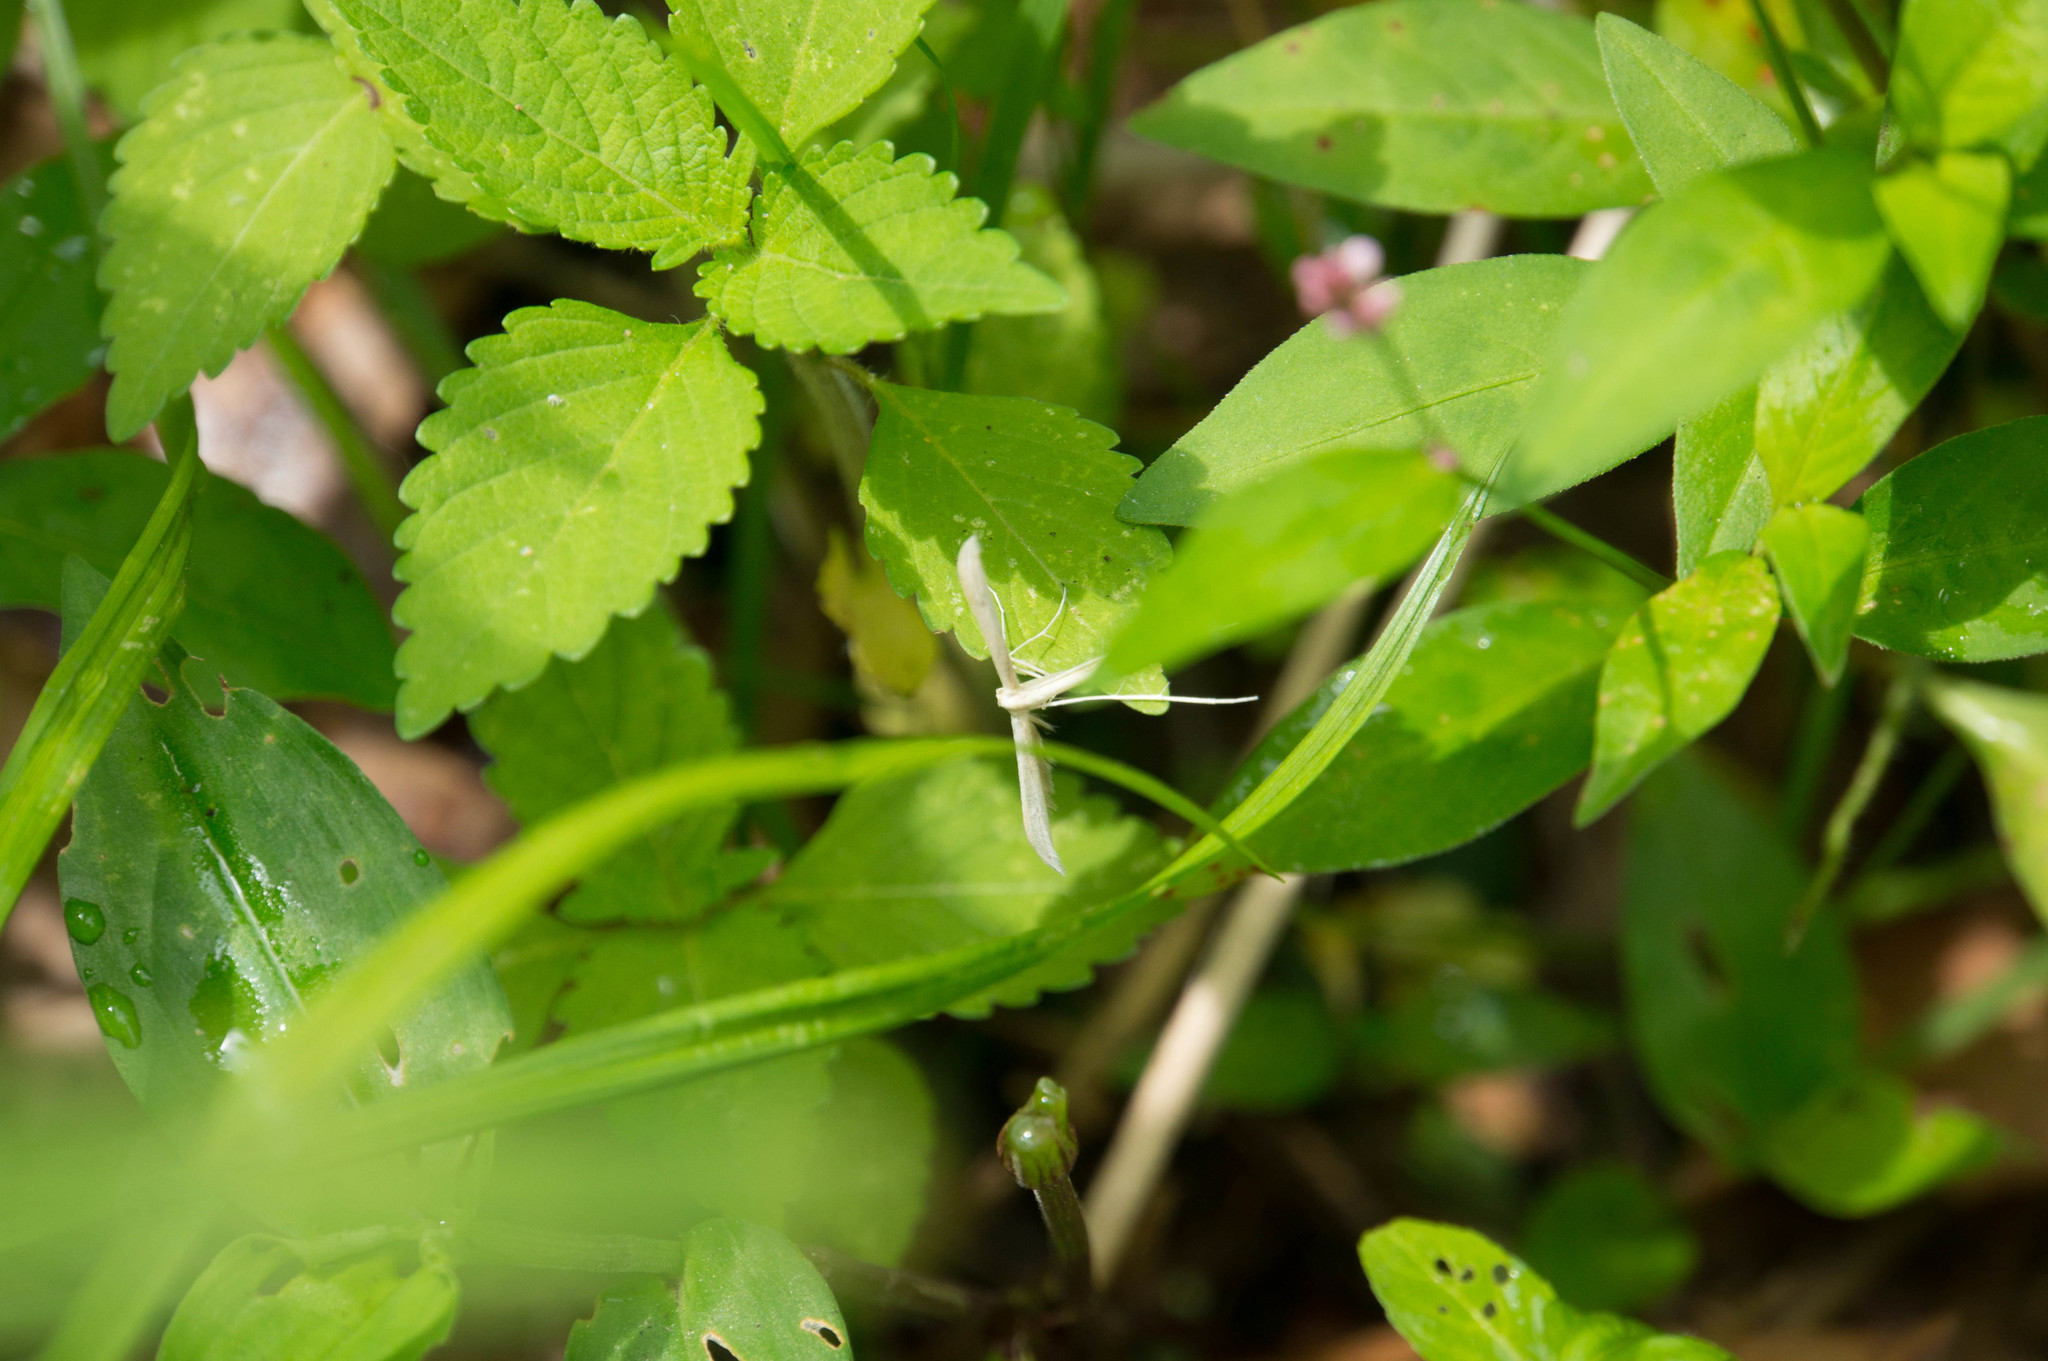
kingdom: Animalia
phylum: Arthropoda
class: Insecta
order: Lepidoptera
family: Pterophoridae
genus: Hellinsia
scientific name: Hellinsia homodactylus
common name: Plain plume moth
